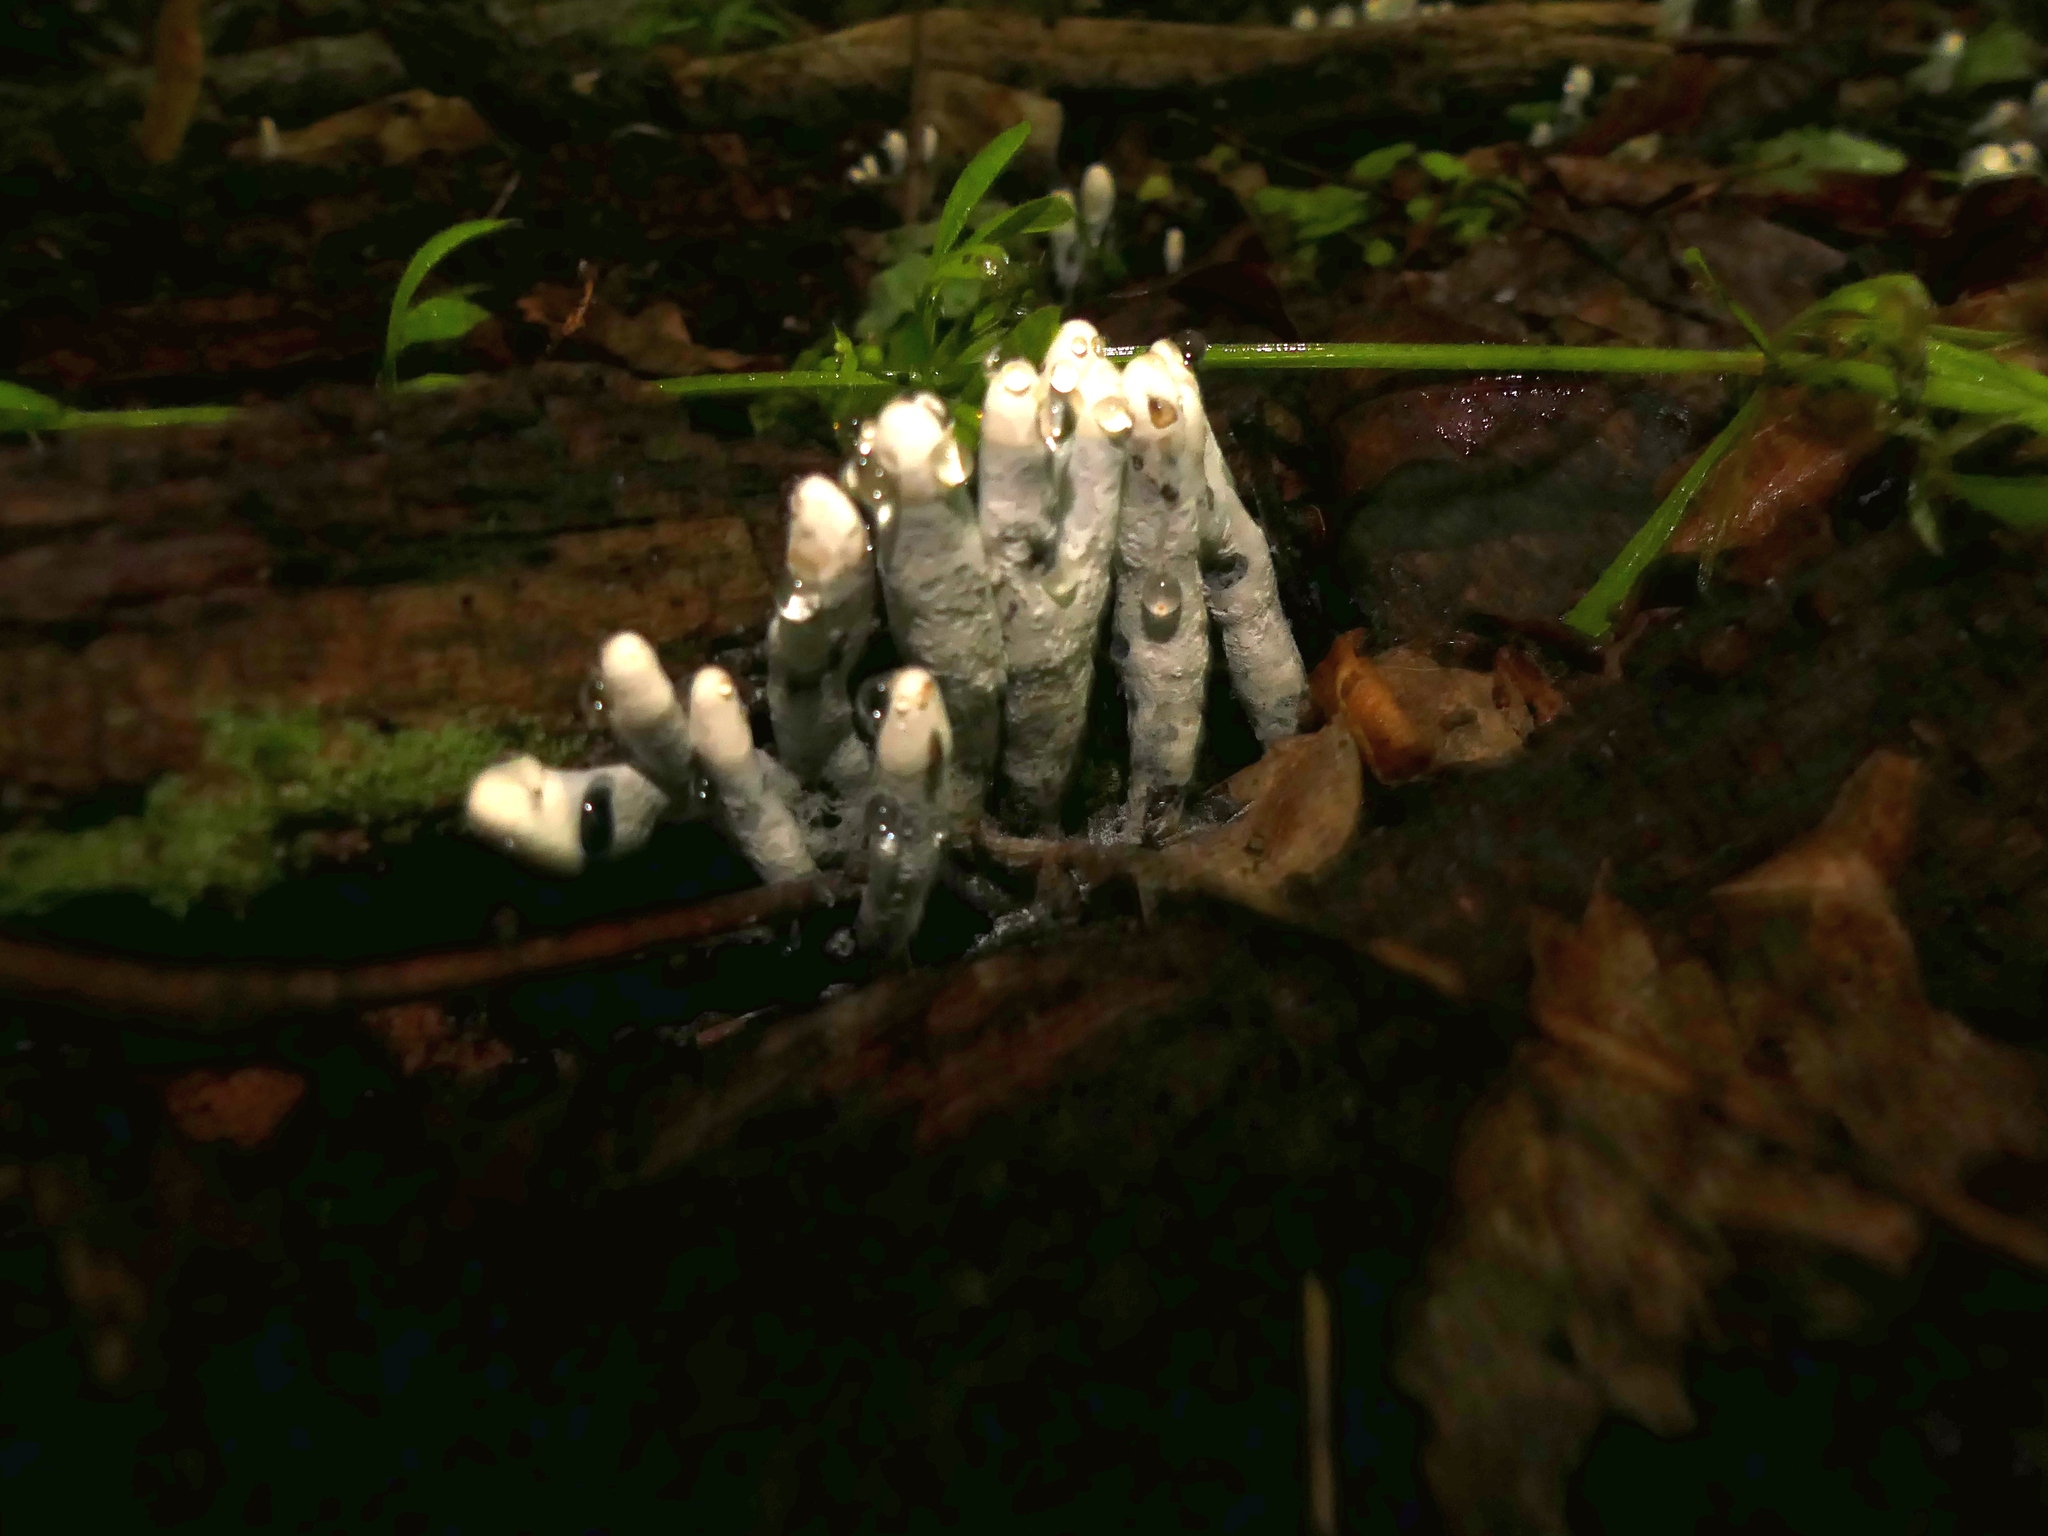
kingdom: Fungi
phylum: Ascomycota
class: Sordariomycetes
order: Xylariales
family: Xylariaceae
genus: Xylaria
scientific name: Xylaria polymorpha
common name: Dead man's fingers
